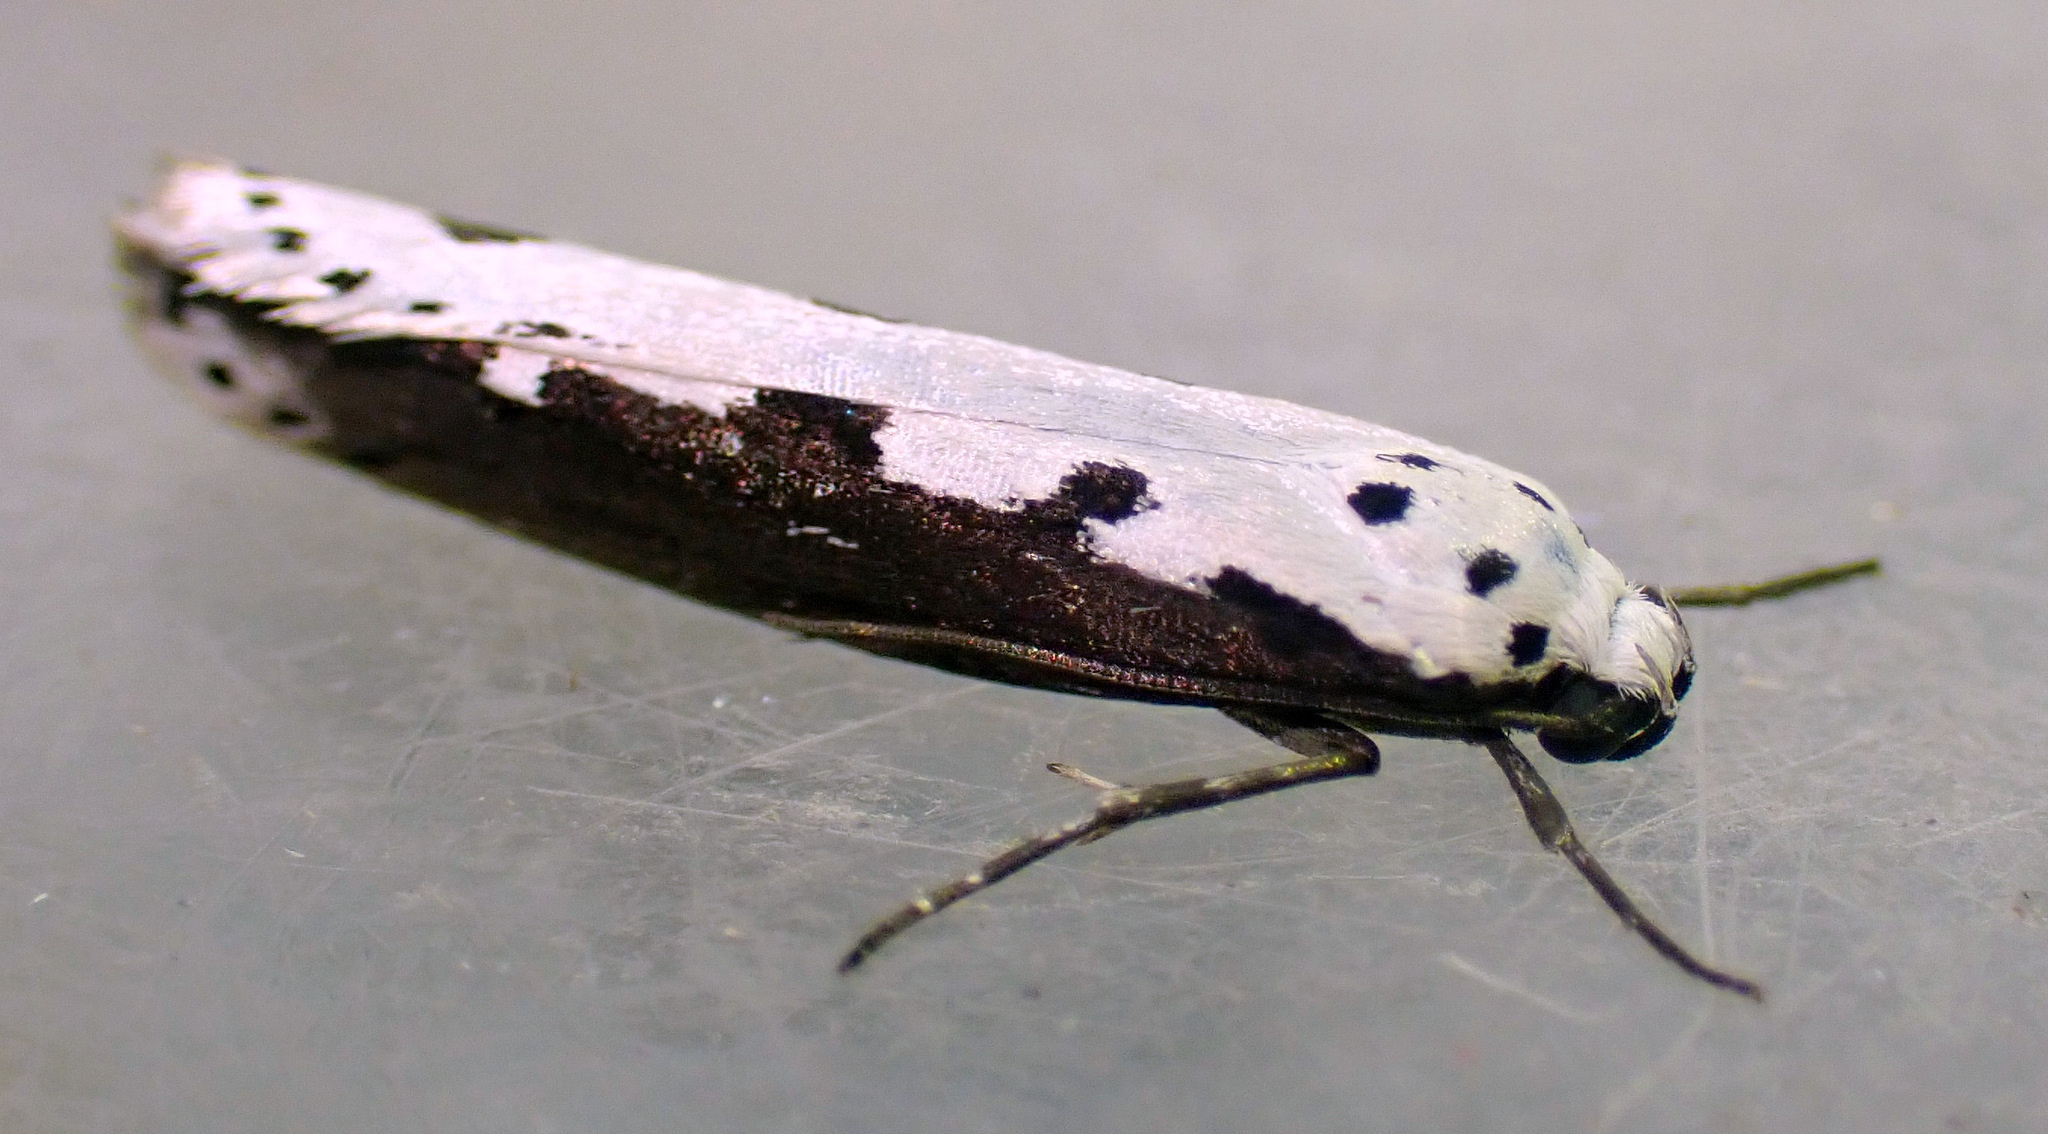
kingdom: Animalia
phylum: Arthropoda
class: Insecta
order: Lepidoptera
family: Ethmiidae
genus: Ethmia
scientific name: Ethmia bipunctella
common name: Bordered ermel
